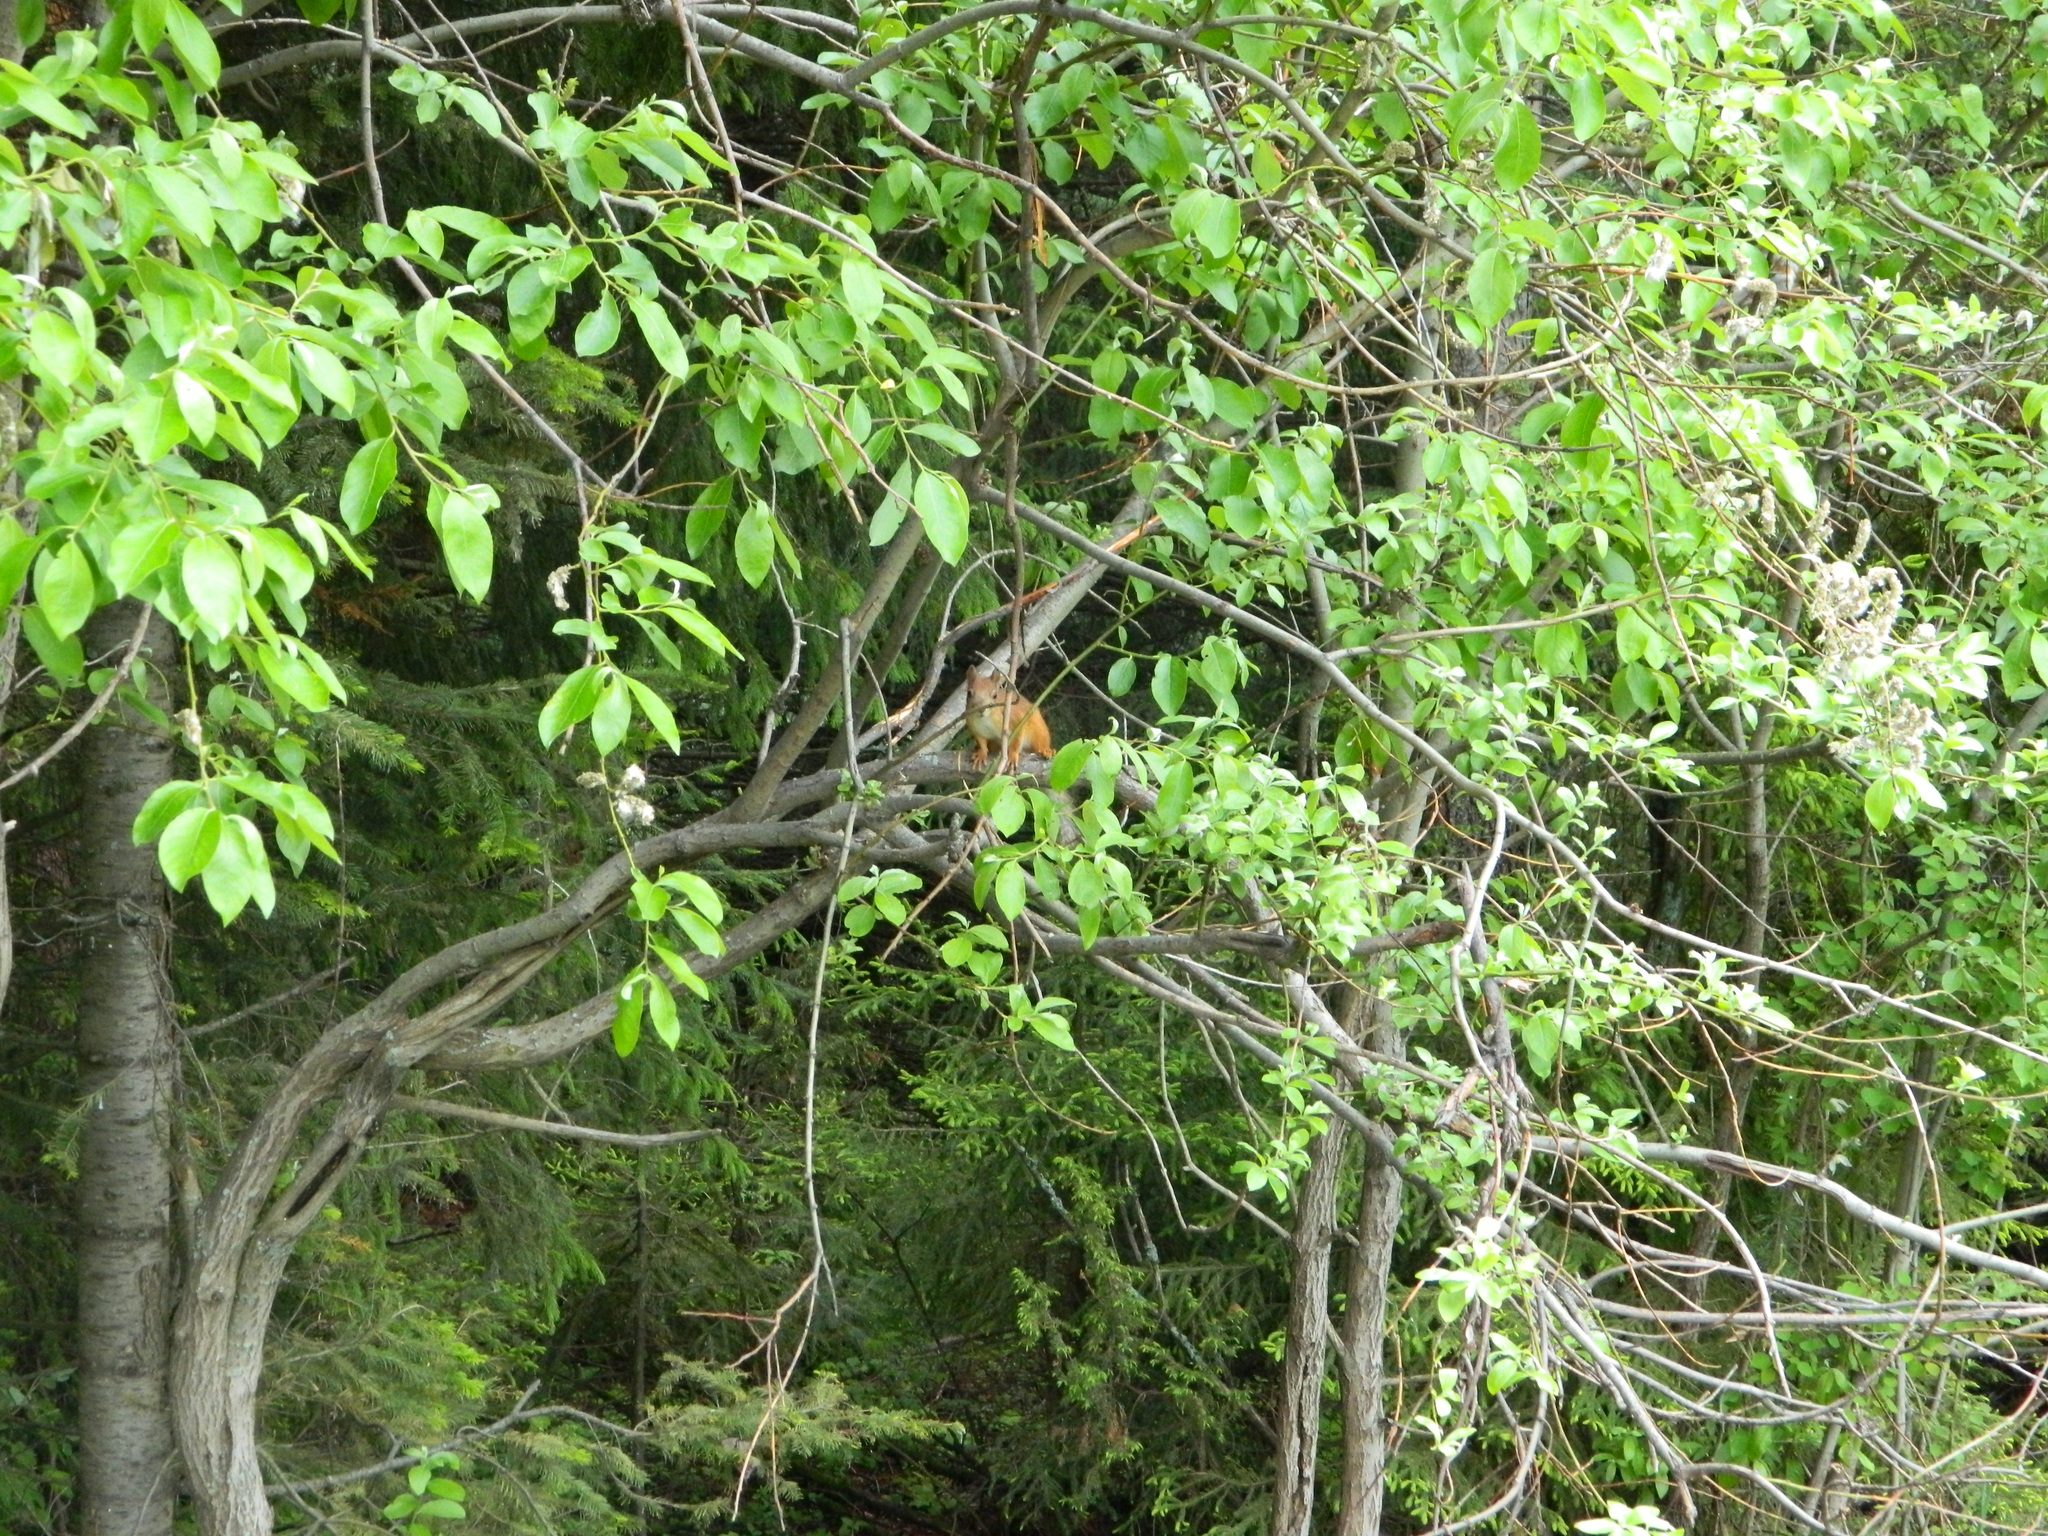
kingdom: Animalia
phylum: Chordata
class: Mammalia
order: Rodentia
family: Sciuridae
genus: Sciurus
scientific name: Sciurus vulgaris
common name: Eurasian red squirrel
